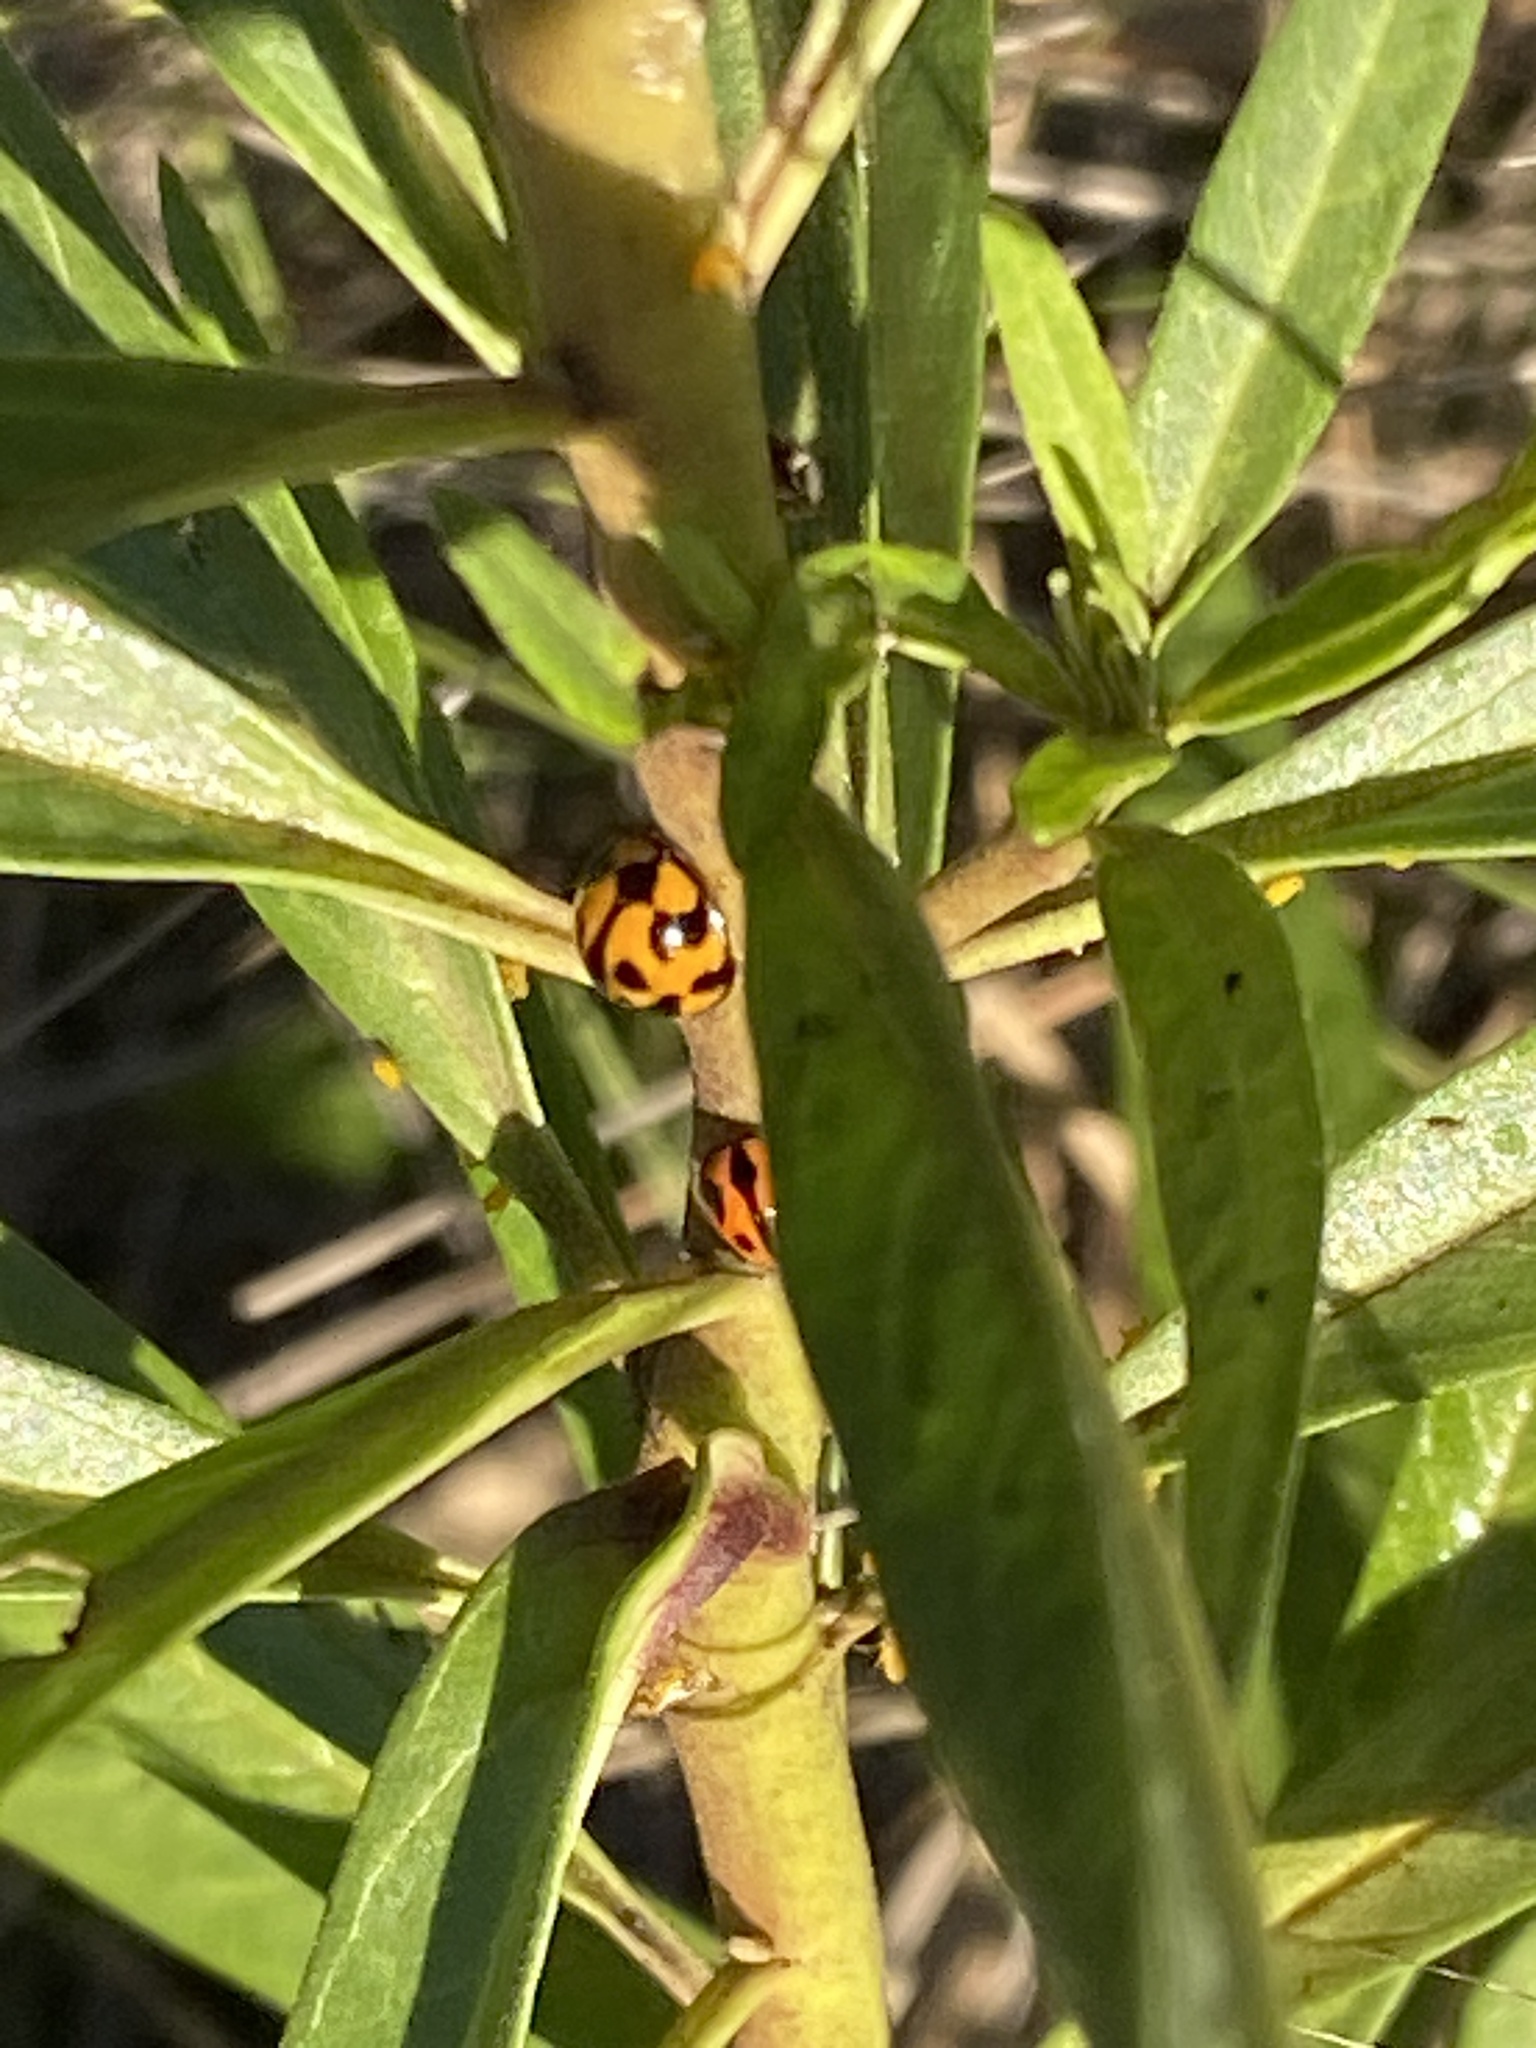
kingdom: Animalia
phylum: Arthropoda
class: Insecta
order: Coleoptera
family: Coccinellidae
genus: Coelophora
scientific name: Coelophora inaequalis
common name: Common australian lady beetle
